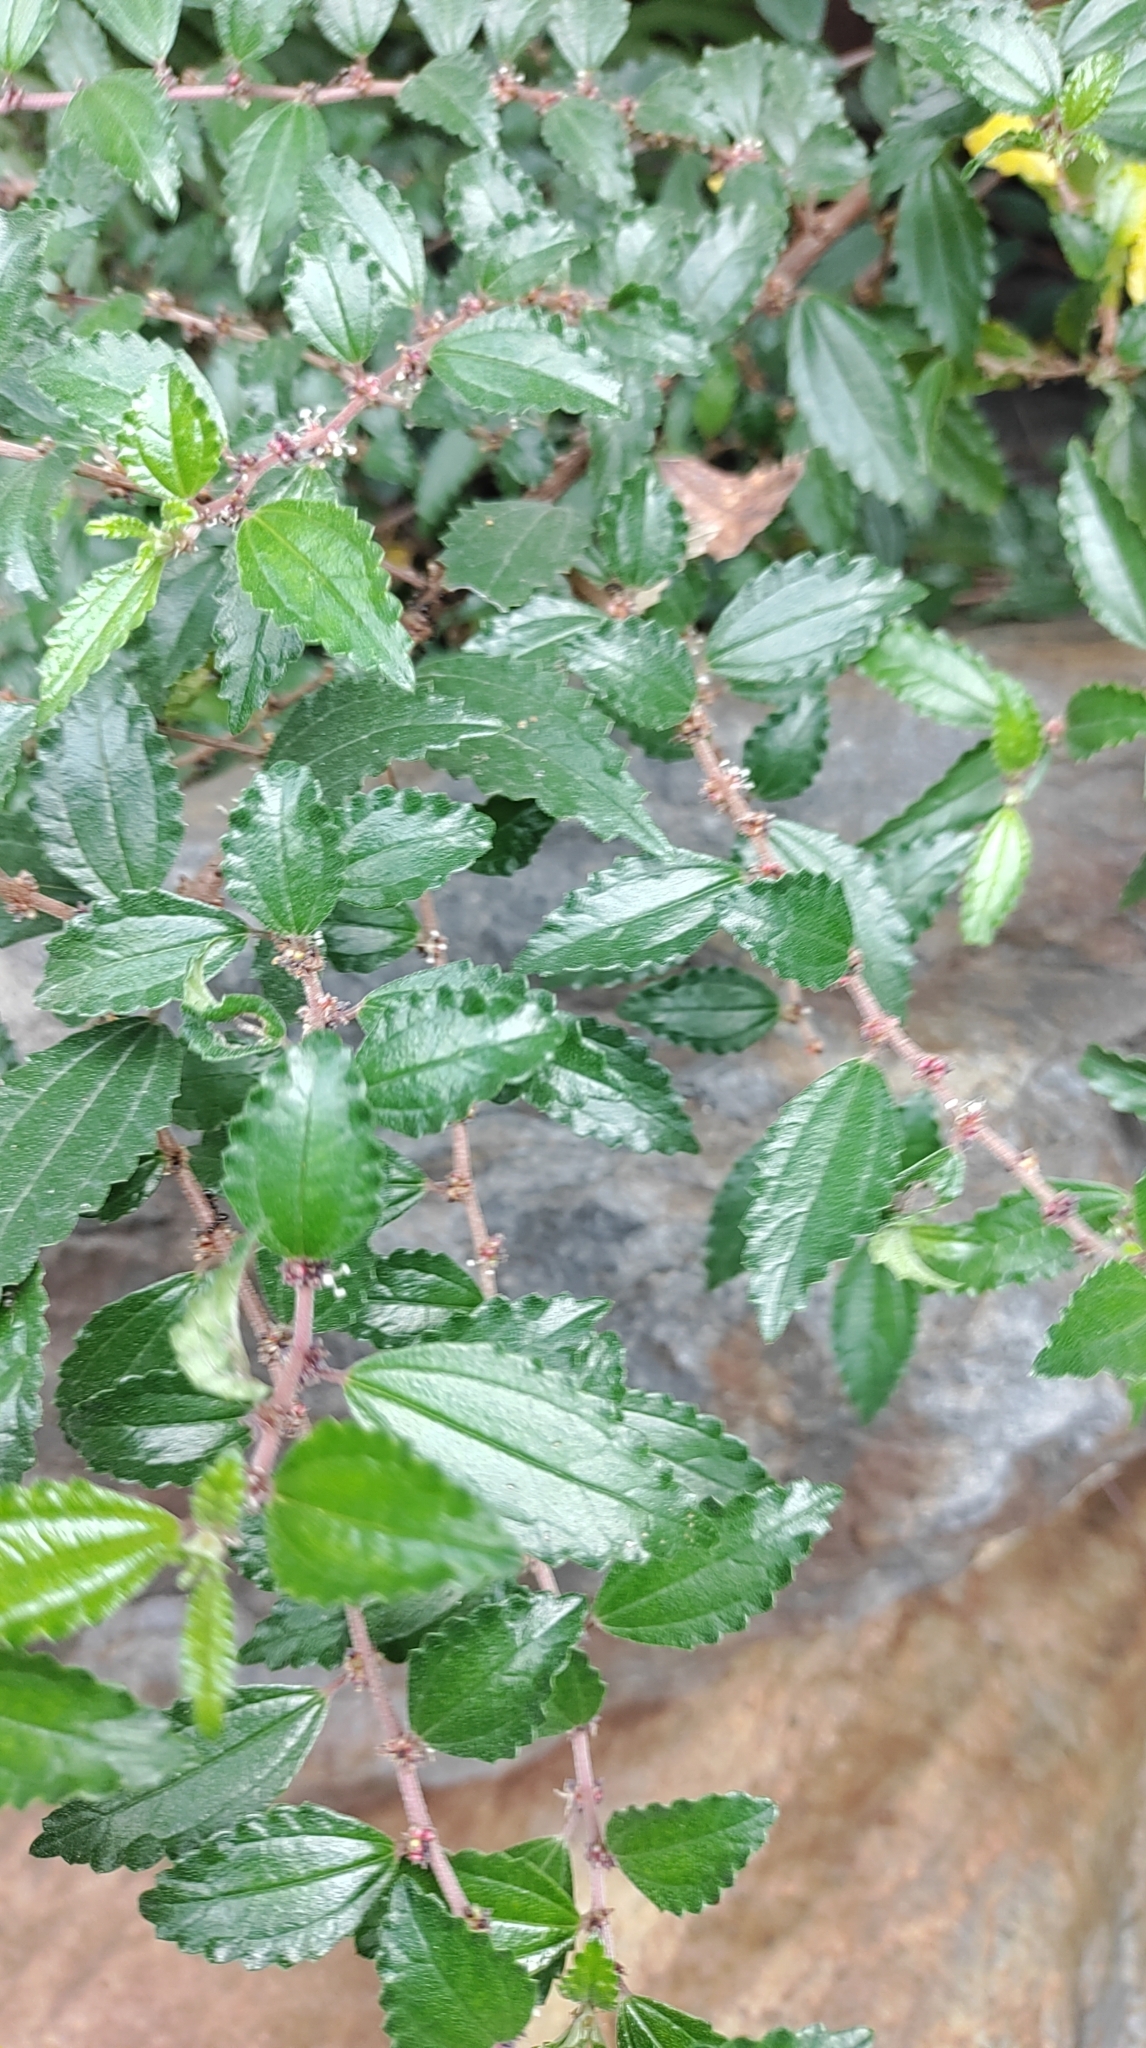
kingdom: Plantae
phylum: Tracheophyta
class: Magnoliopsida
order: Rosales
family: Urticaceae
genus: Pouzolzia
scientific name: Pouzolzia sanguinea
